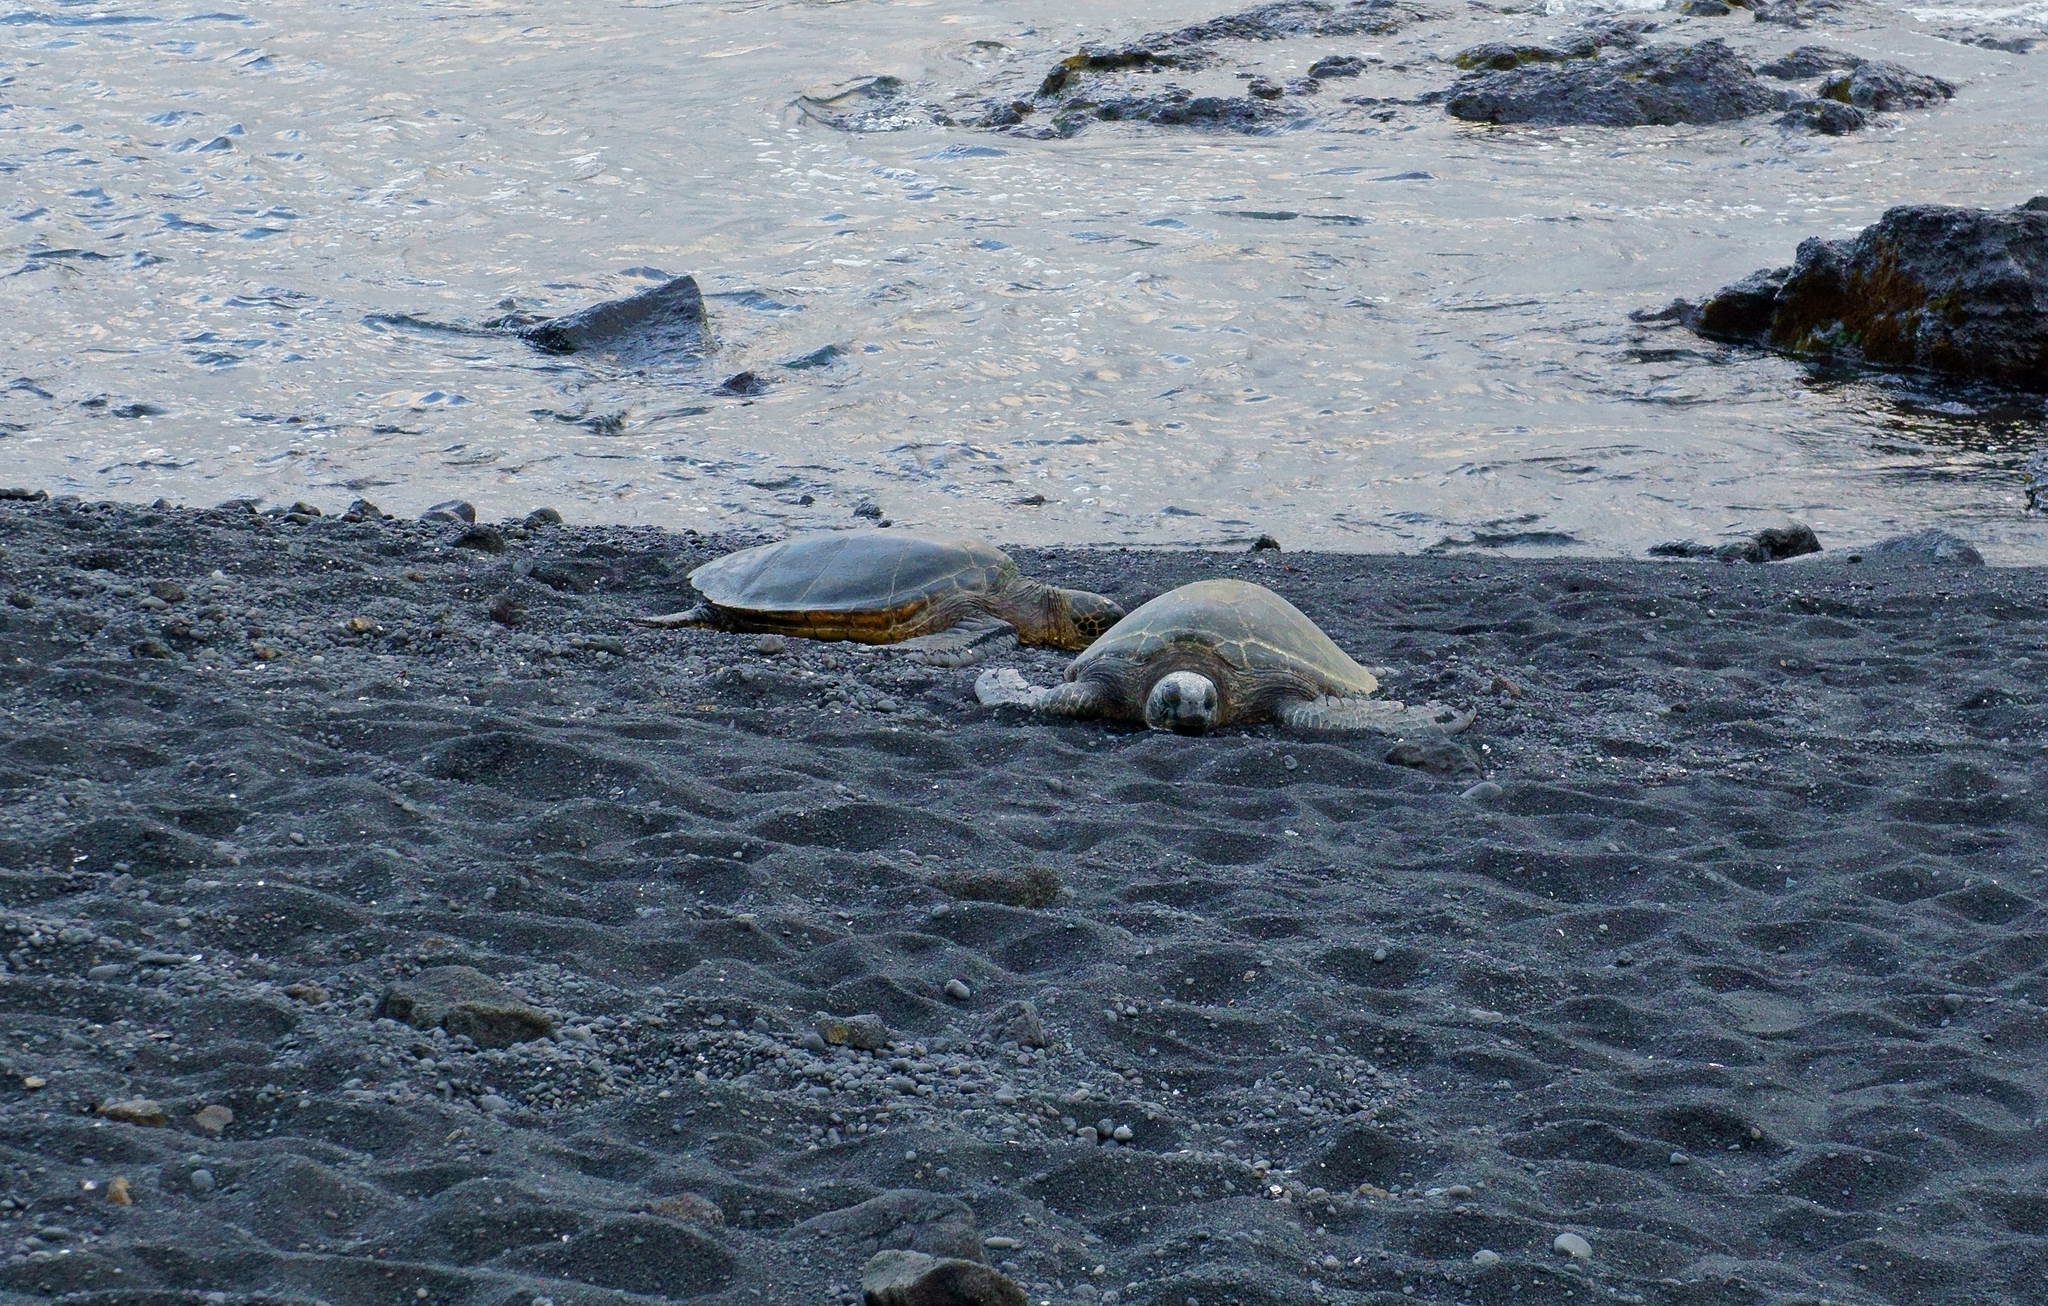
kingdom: Animalia
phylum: Chordata
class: Testudines
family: Cheloniidae
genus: Chelonia
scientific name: Chelonia mydas
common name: Green turtle
